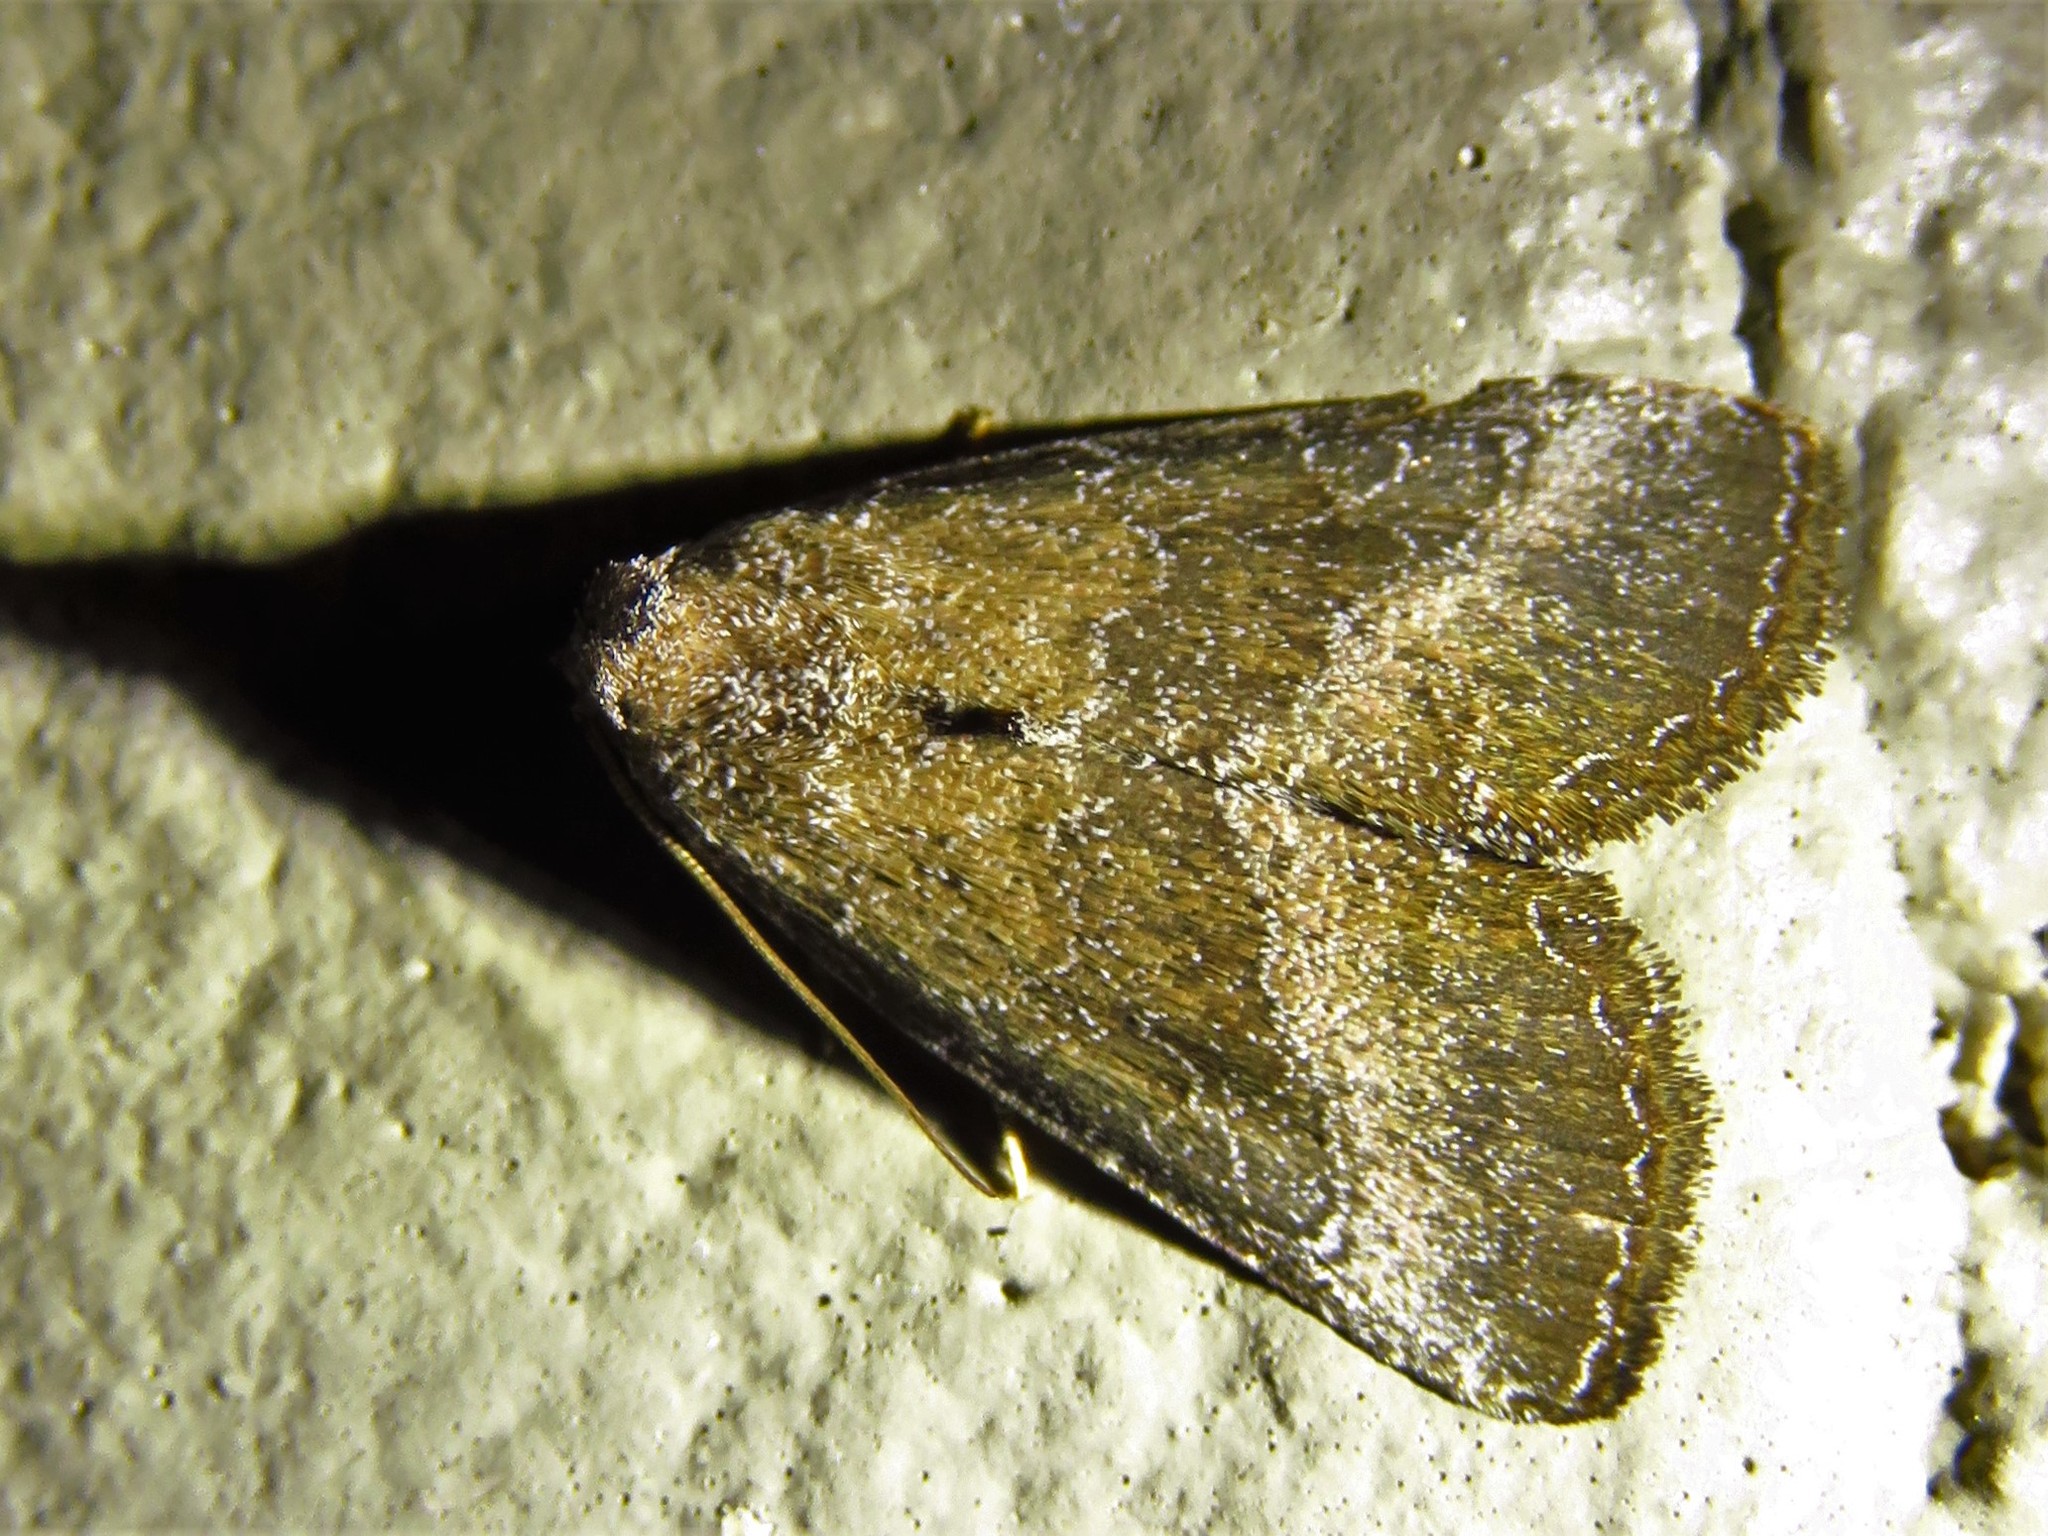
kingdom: Animalia
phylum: Arthropoda
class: Insecta
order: Lepidoptera
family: Noctuidae
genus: Ogdoconta
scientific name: Ogdoconta cinereola
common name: Common pinkband
